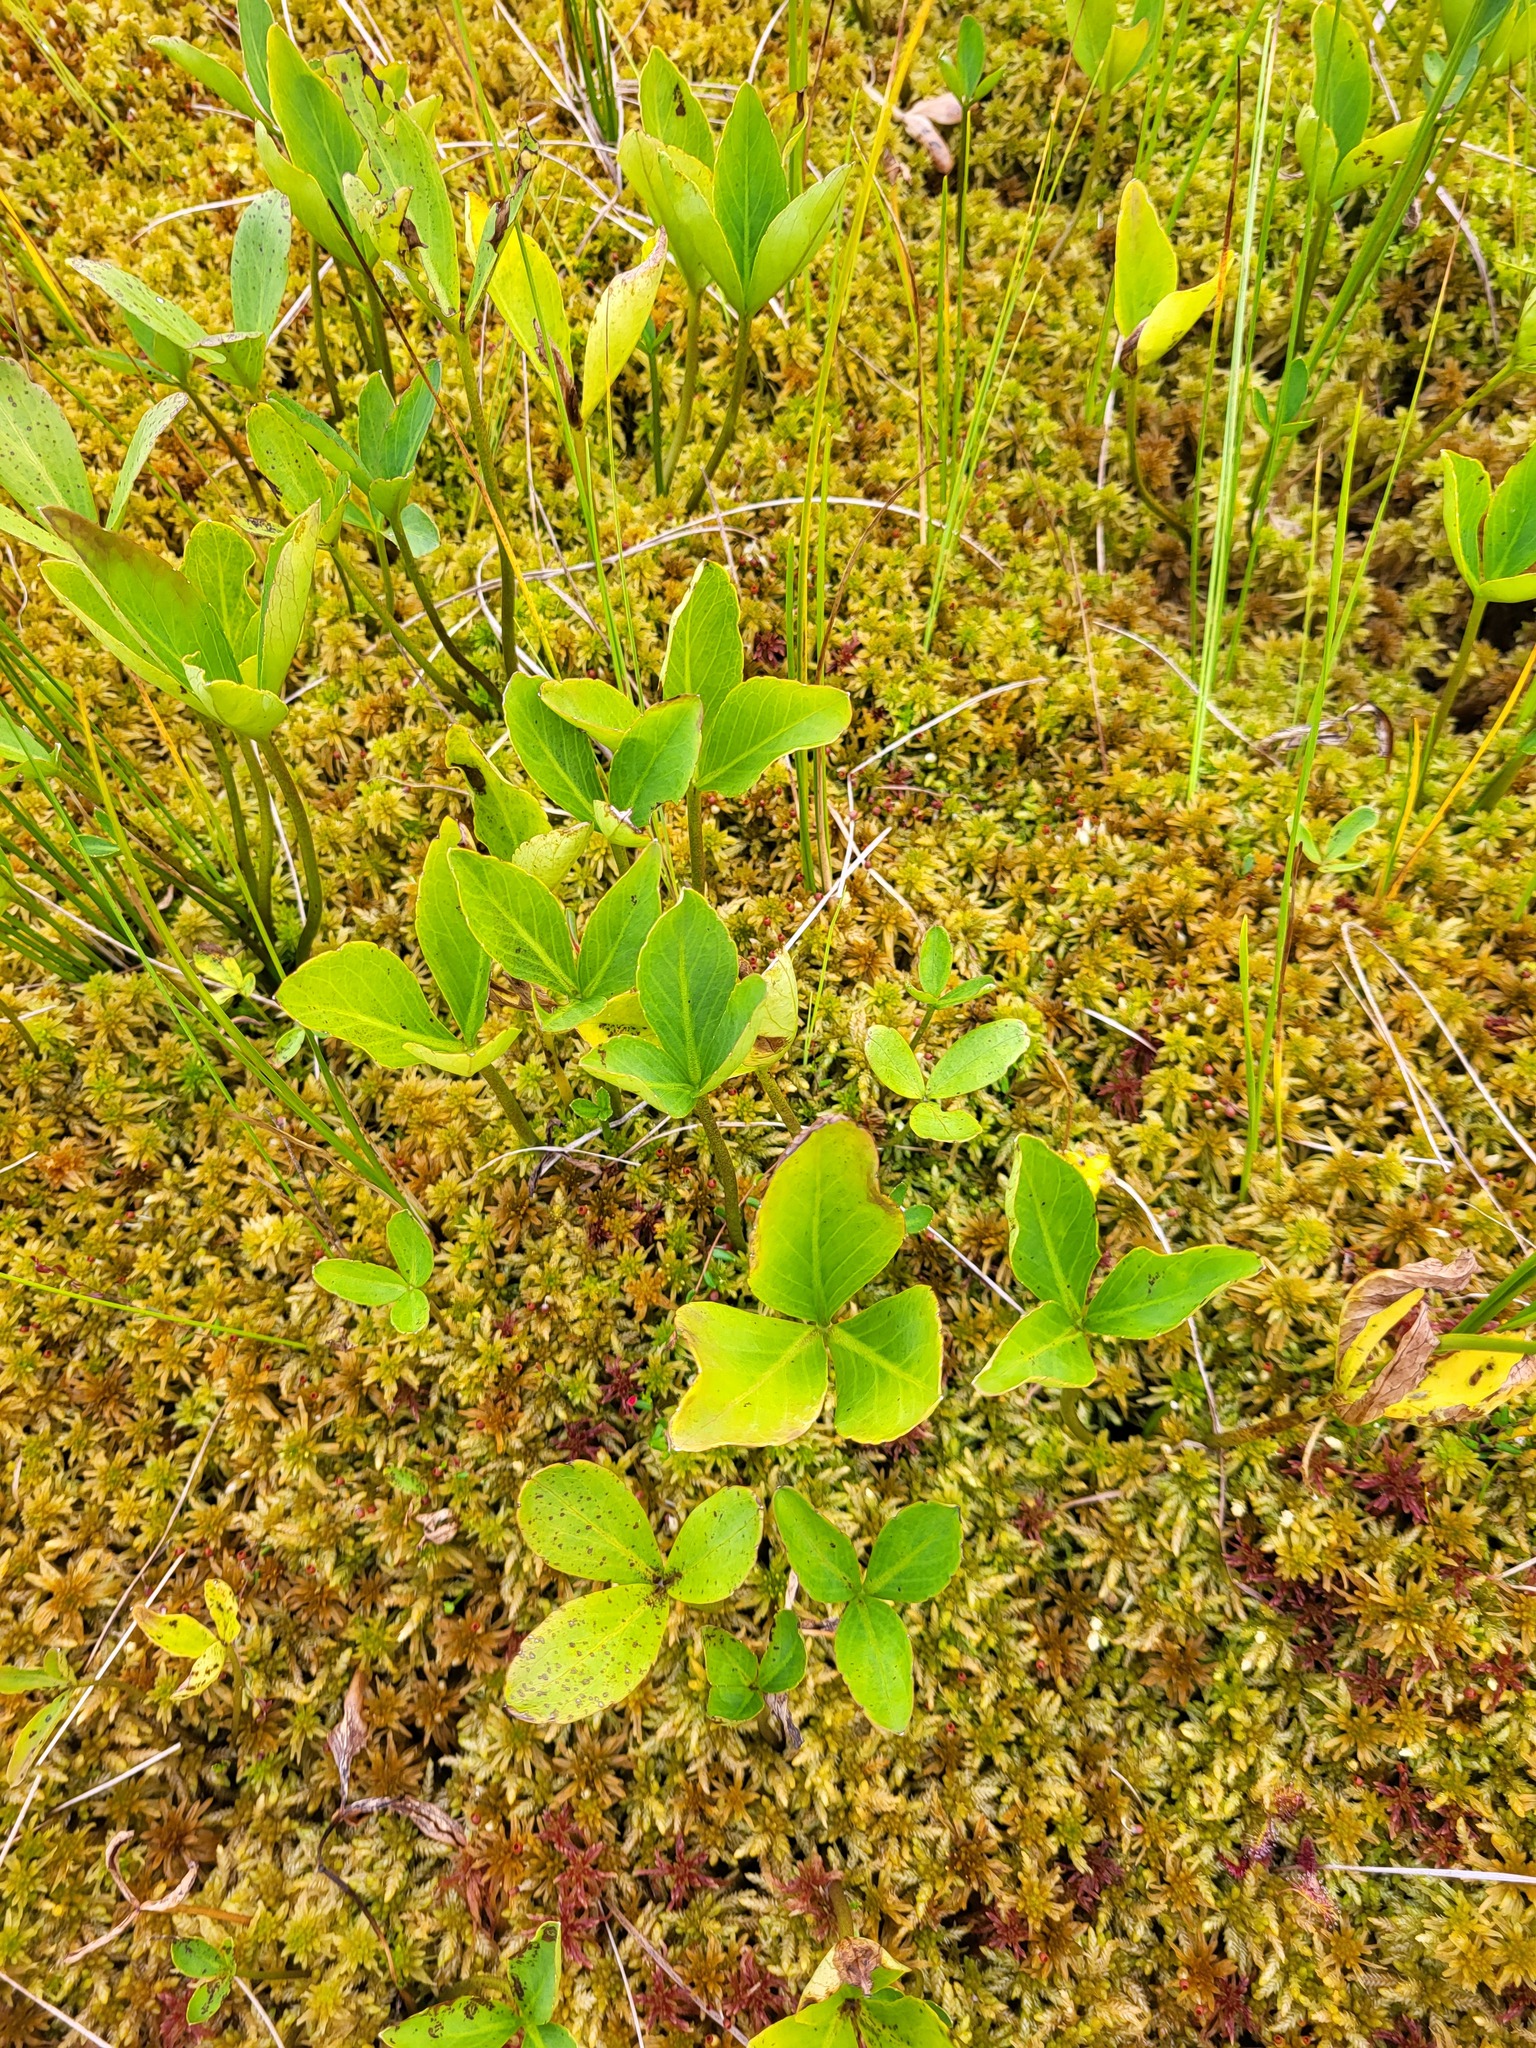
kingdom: Plantae
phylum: Tracheophyta
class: Magnoliopsida
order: Asterales
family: Menyanthaceae
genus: Menyanthes
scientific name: Menyanthes trifoliata
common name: Bogbean
